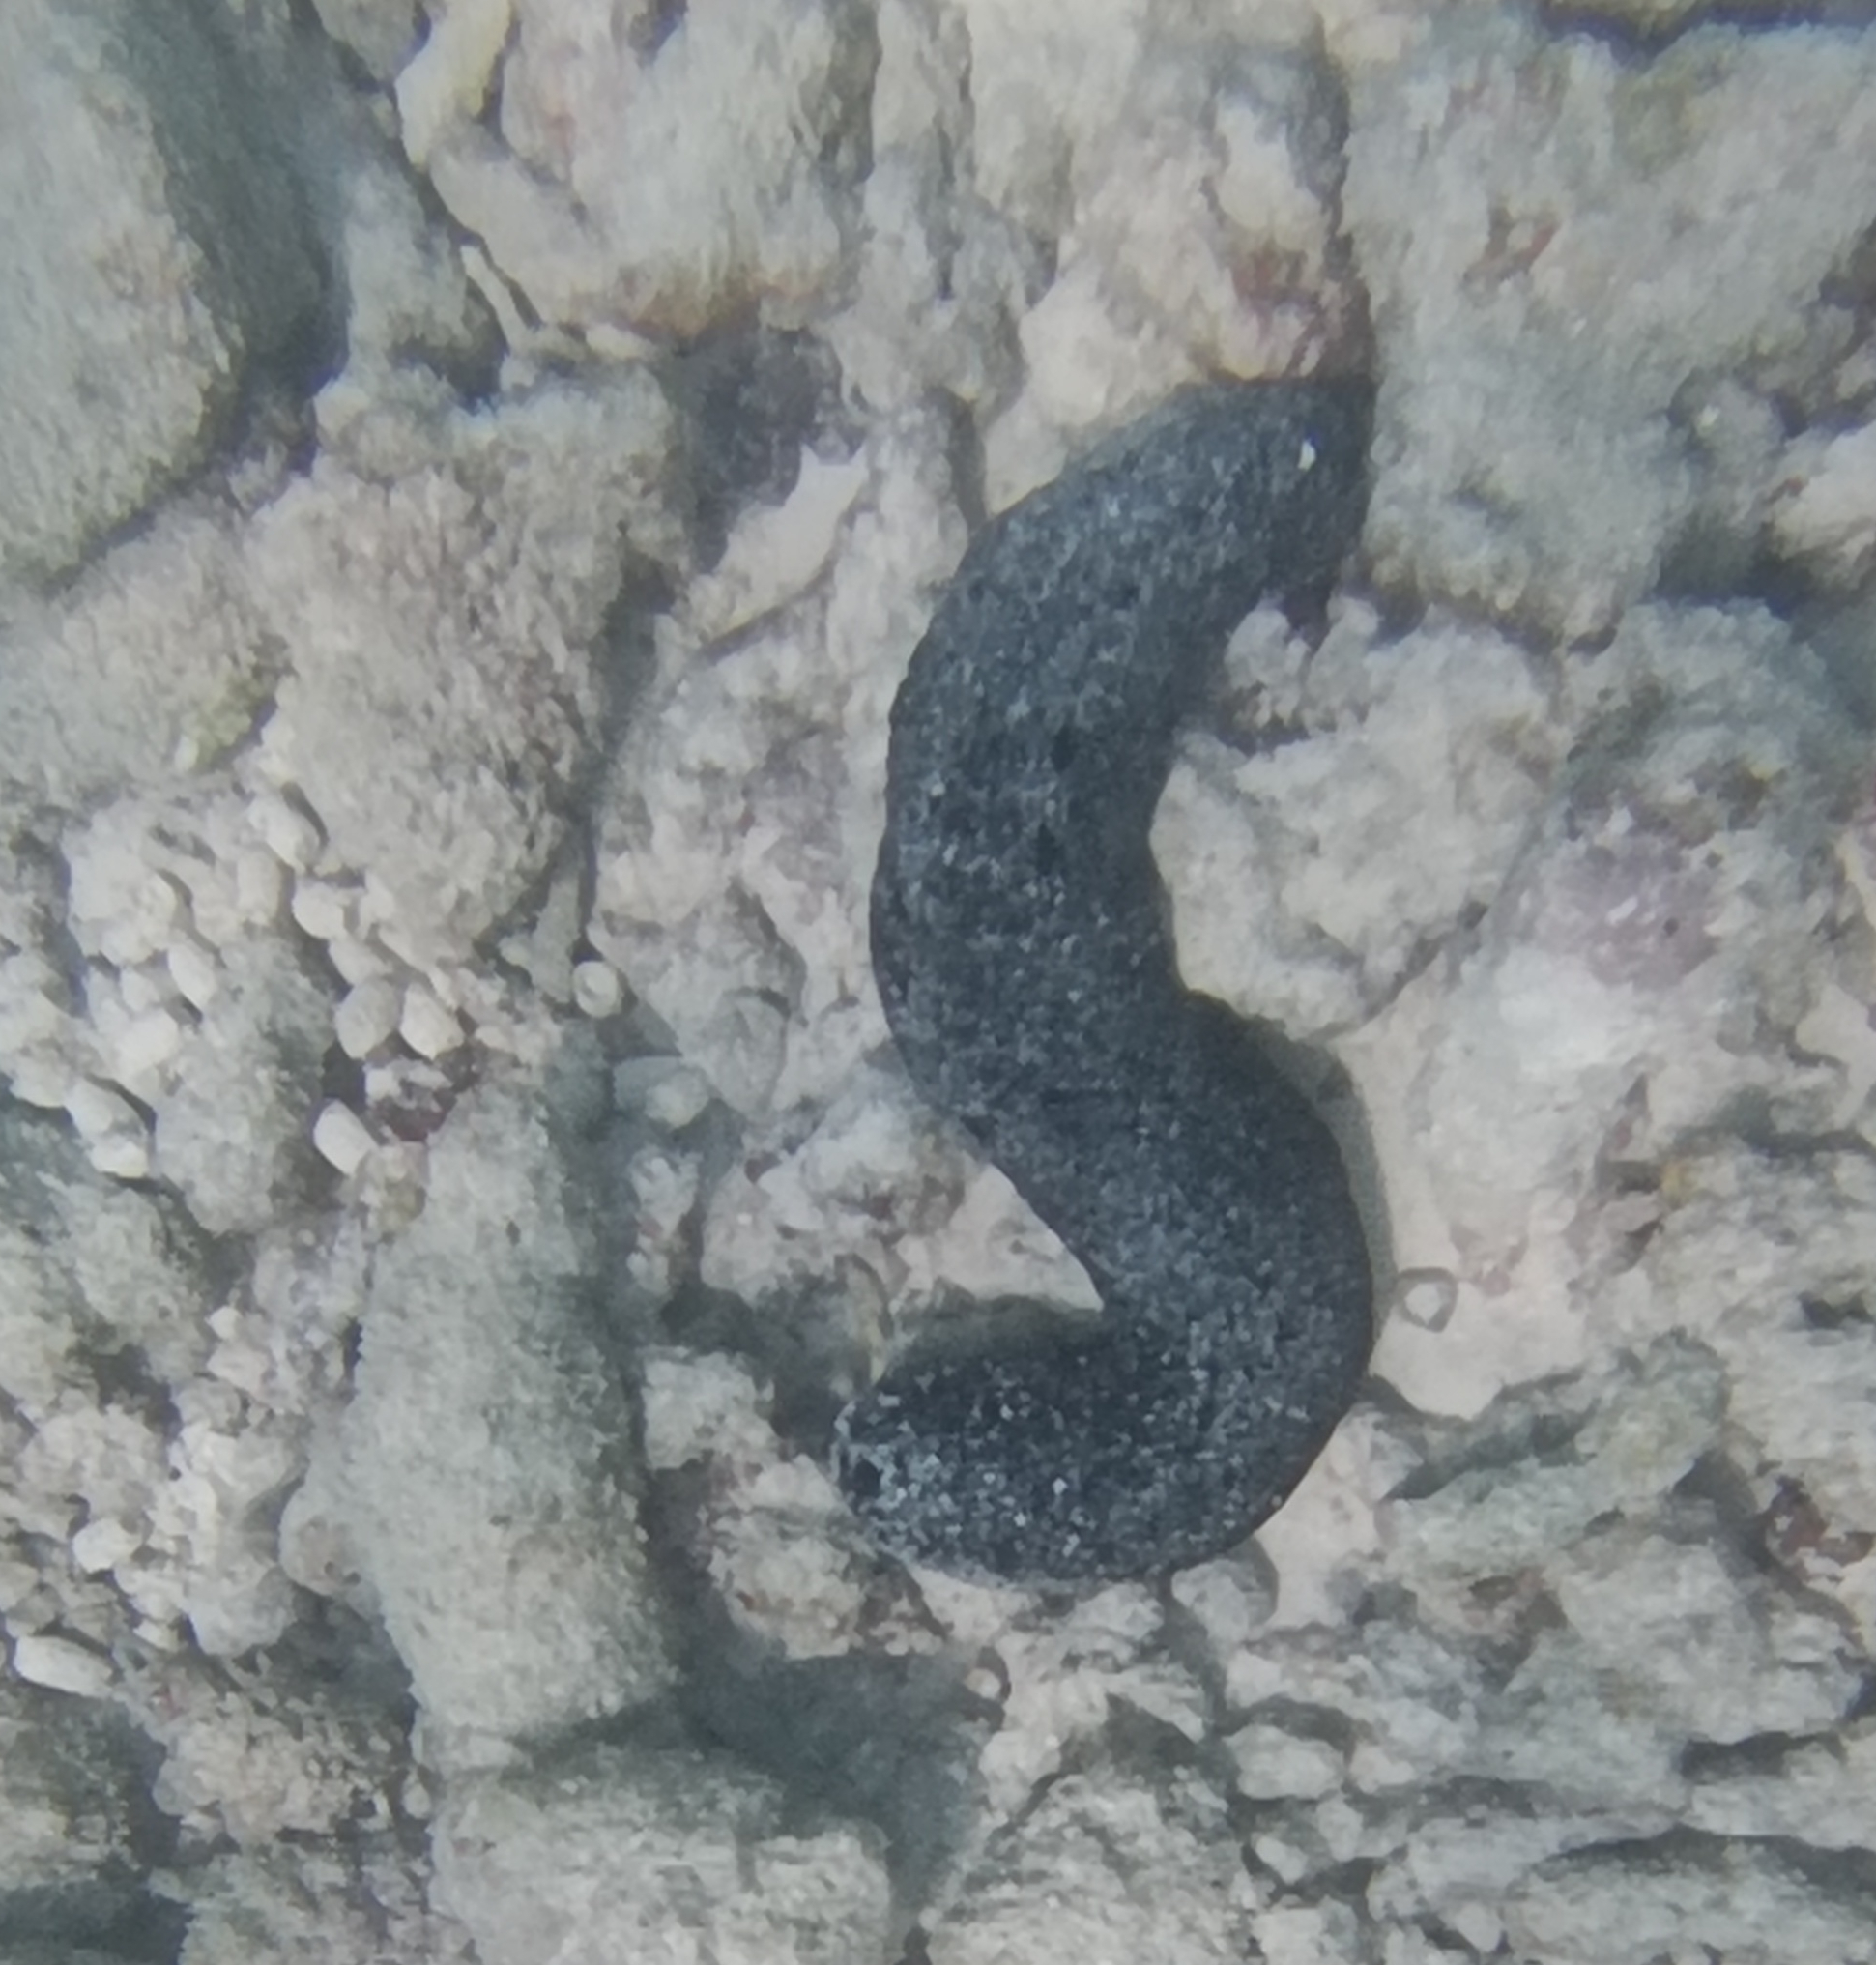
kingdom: Animalia
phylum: Echinodermata
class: Holothuroidea
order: Holothuriida
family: Holothuriidae
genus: Holothuria
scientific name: Holothuria atra
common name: Lollyfish
